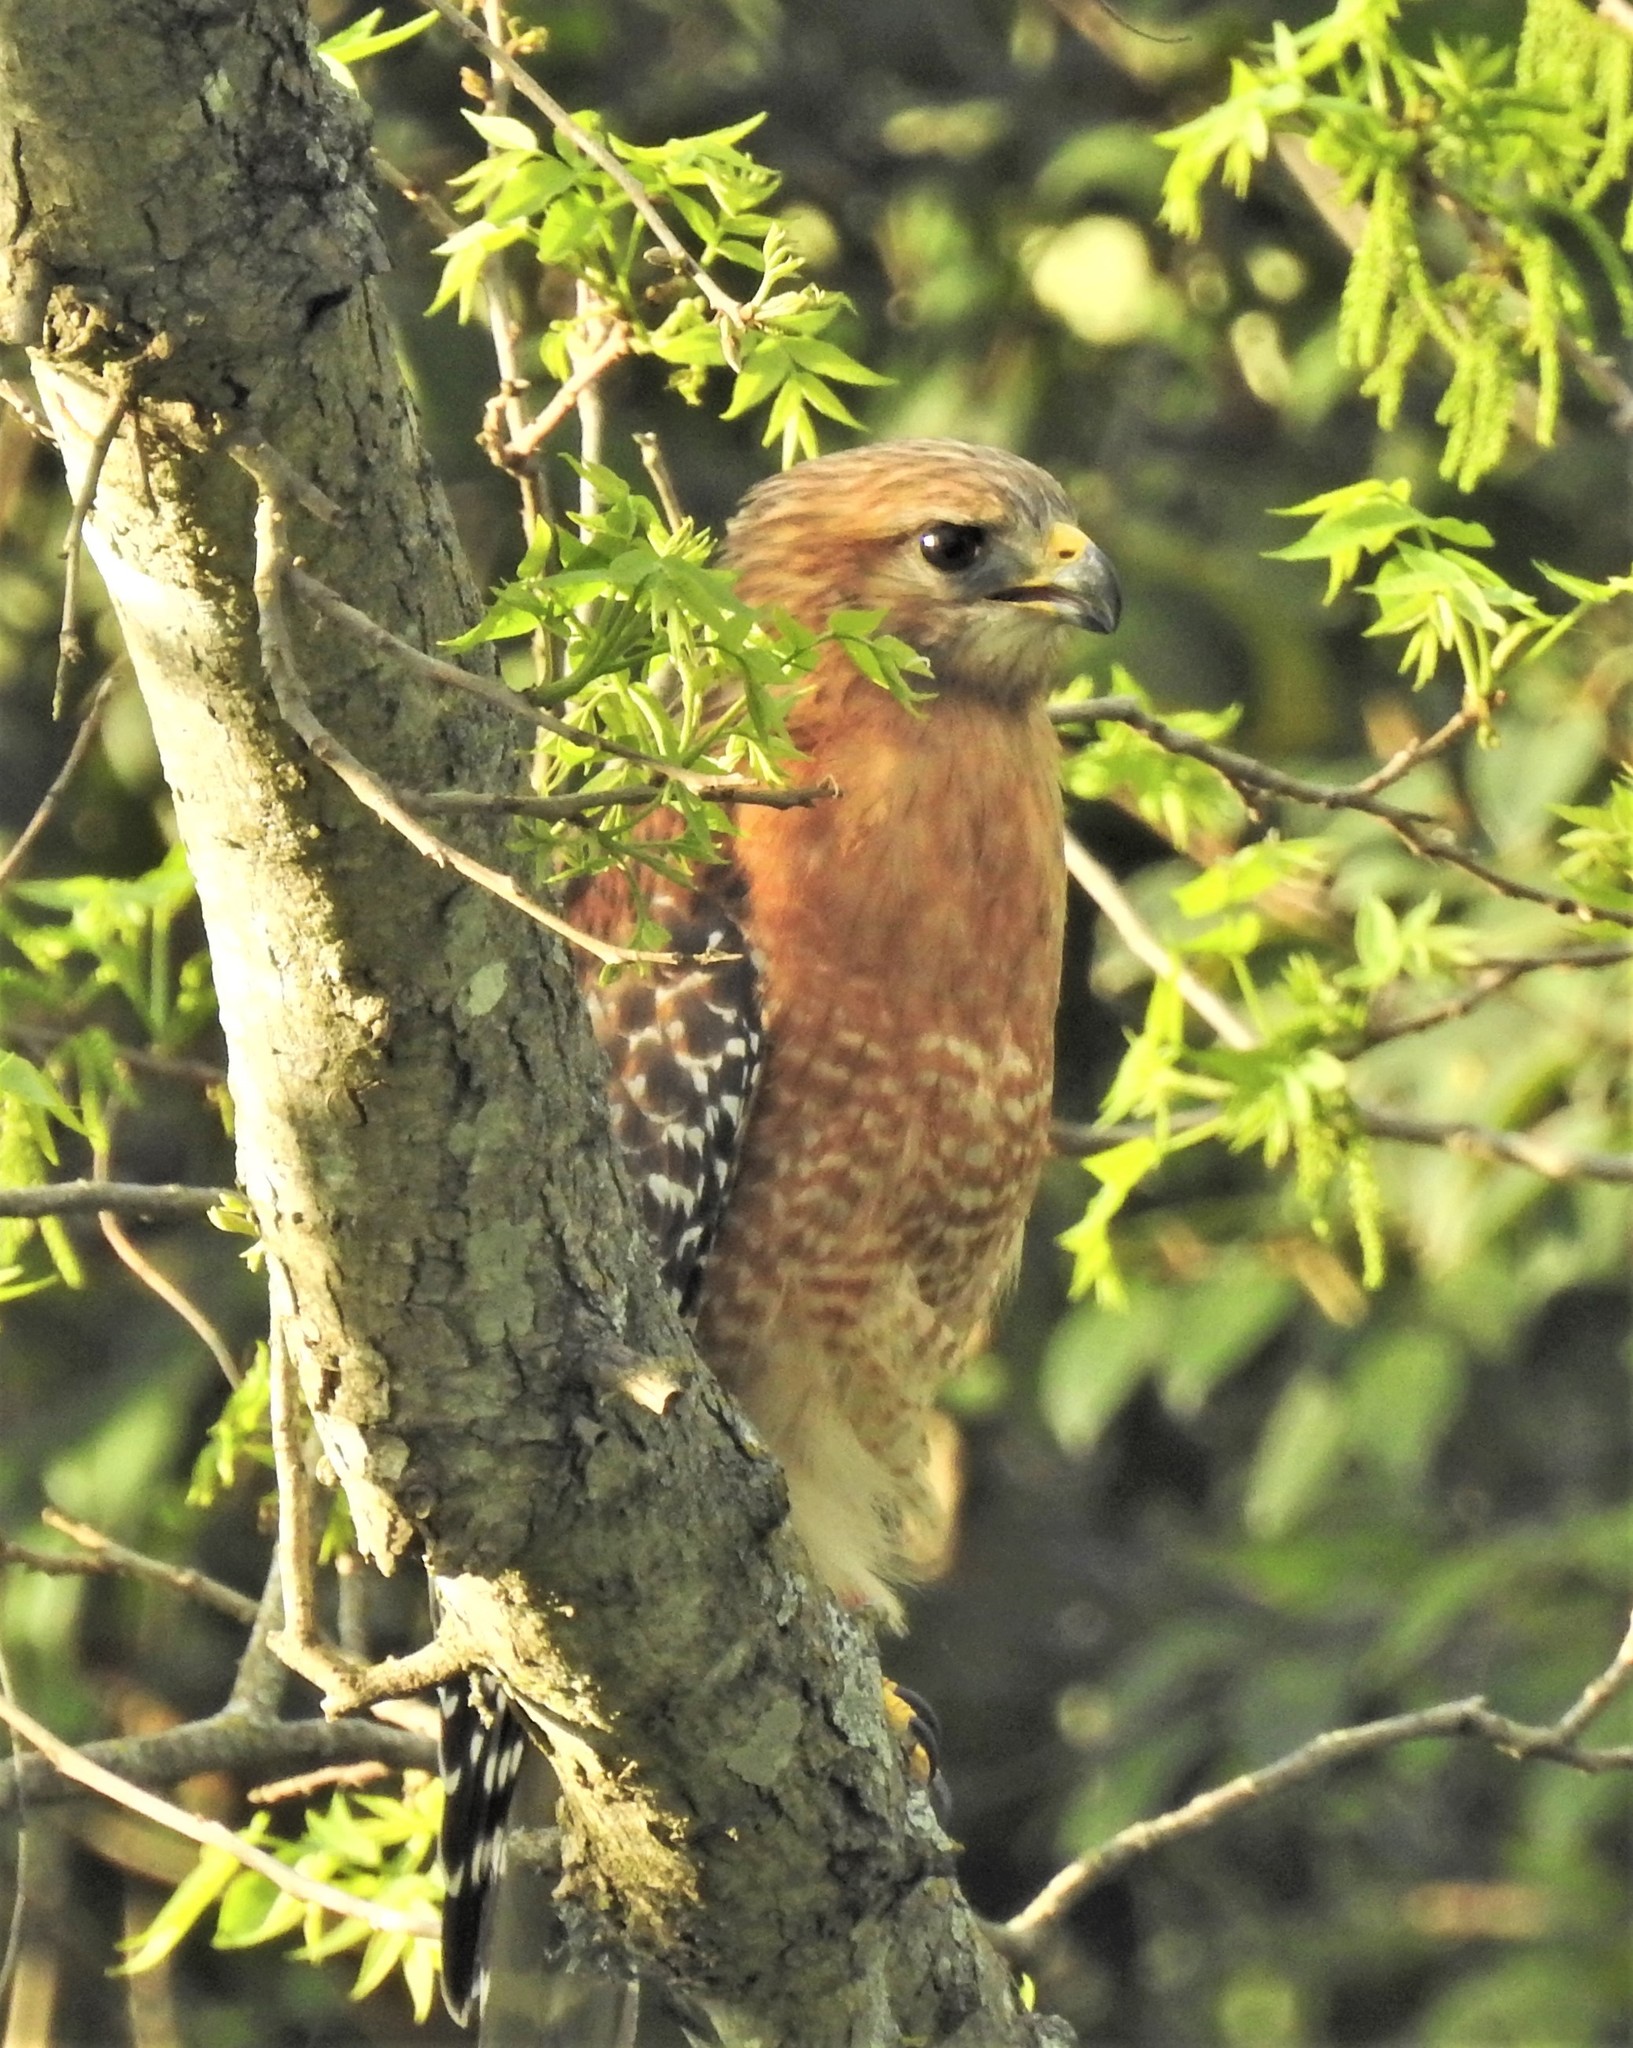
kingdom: Animalia
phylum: Chordata
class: Aves
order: Accipitriformes
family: Accipitridae
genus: Buteo
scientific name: Buteo lineatus
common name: Red-shouldered hawk
